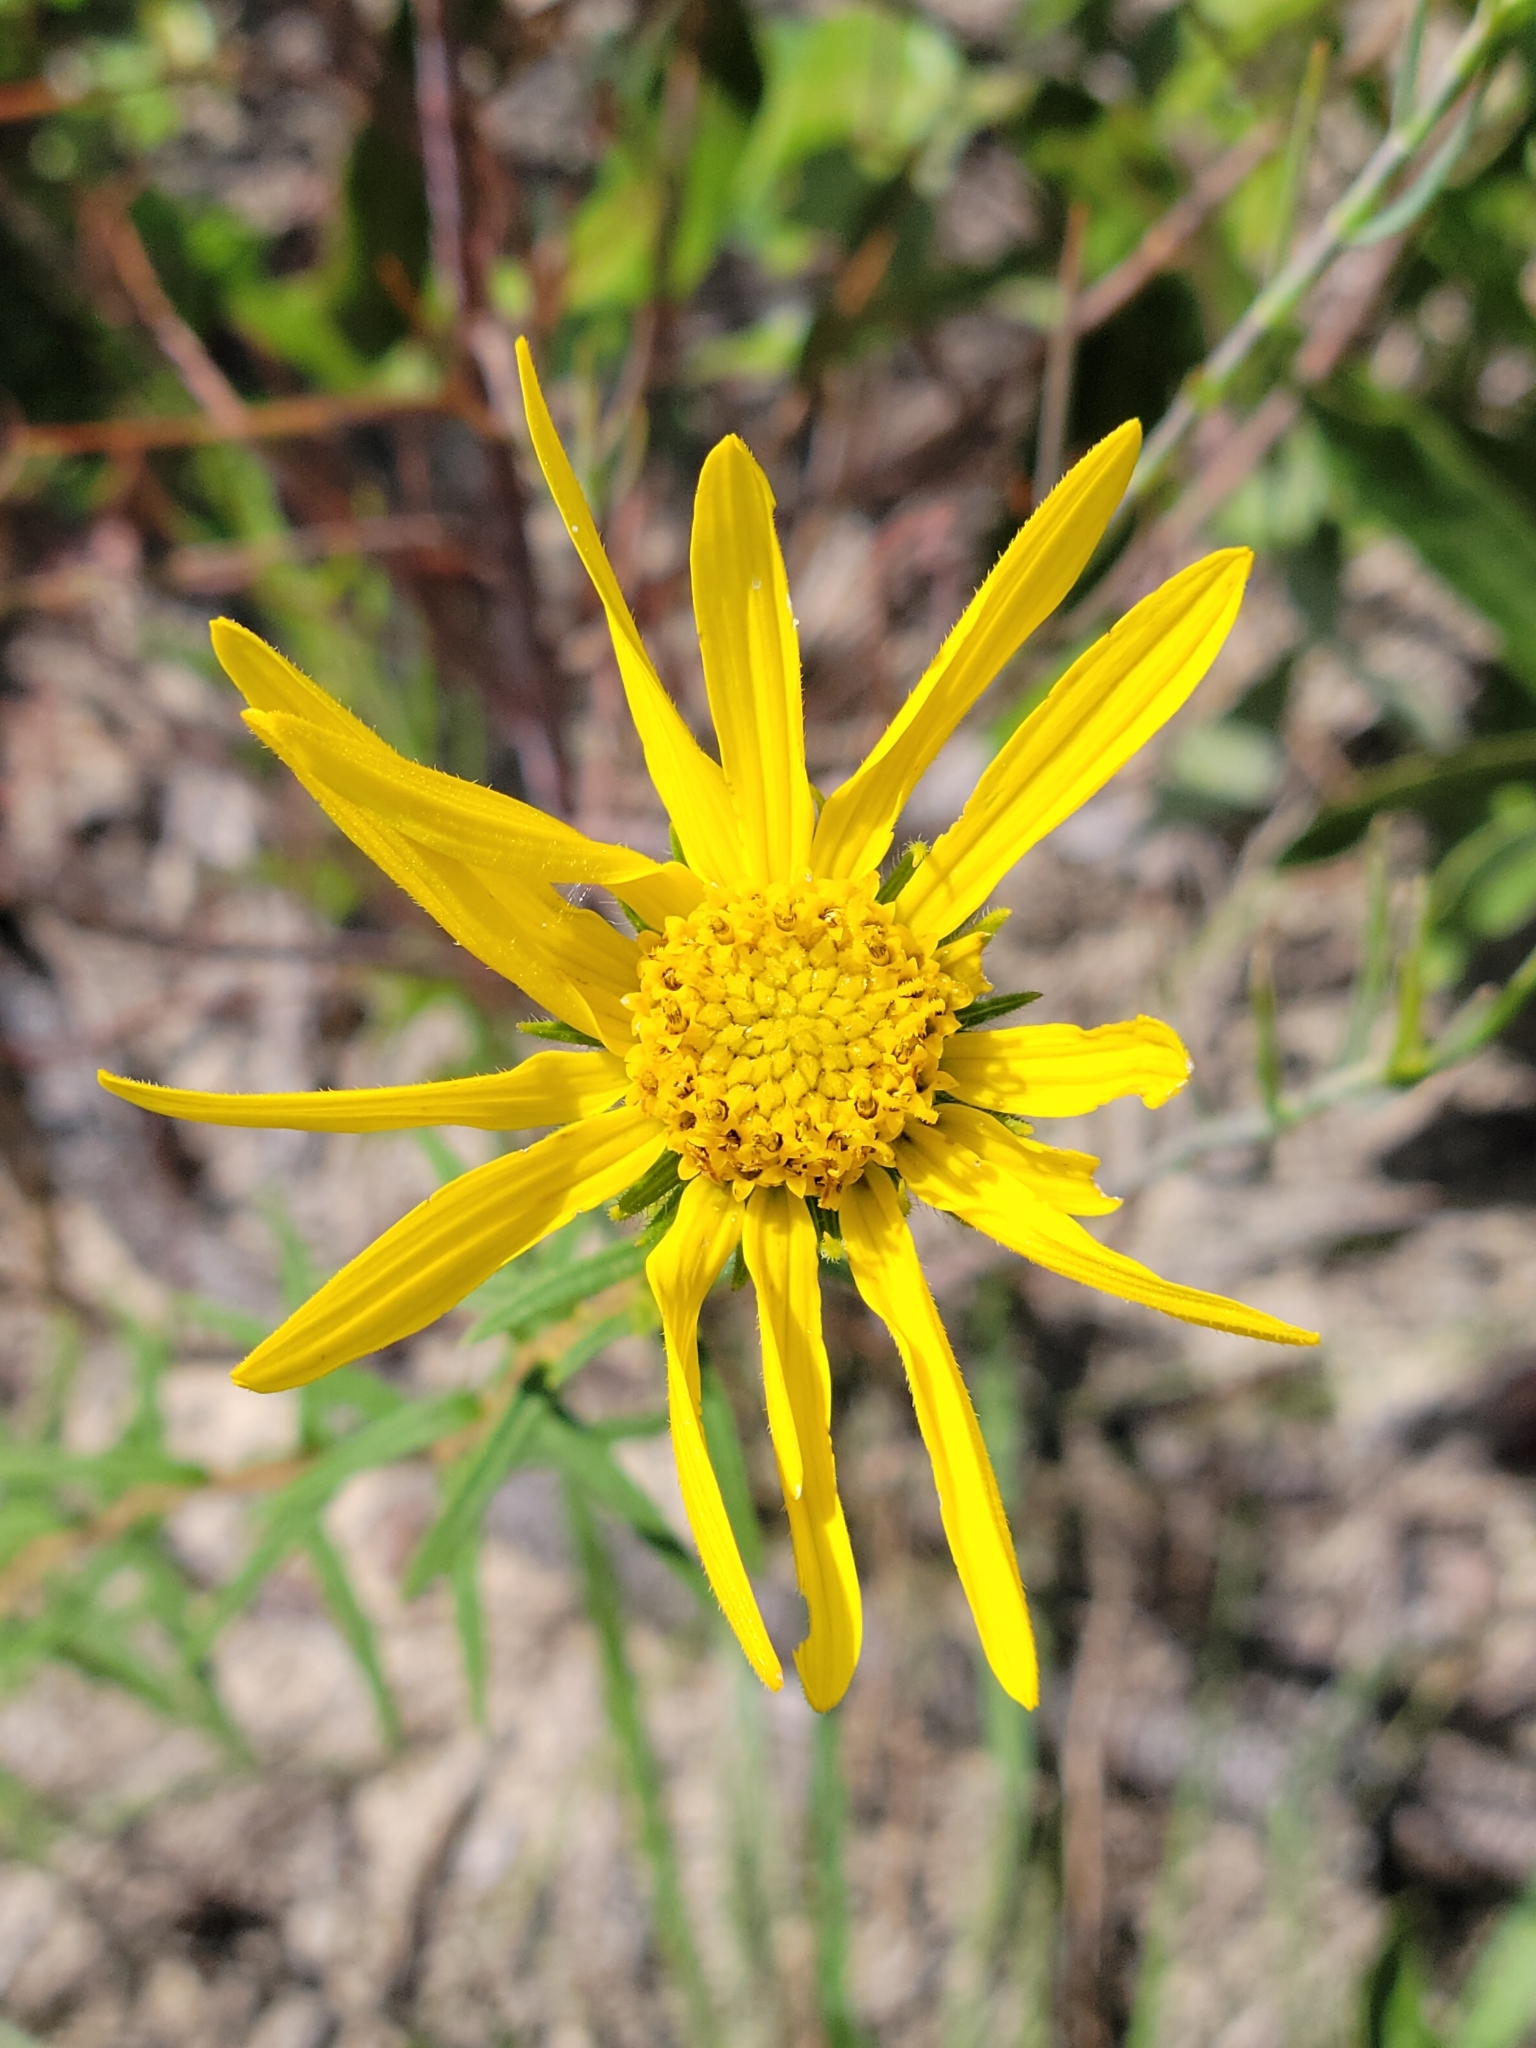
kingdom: Plantae
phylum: Tracheophyta
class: Magnoliopsida
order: Asterales
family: Asteraceae
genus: Phoebanthus
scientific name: Phoebanthus grandiflora
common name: Florida false sunflower
